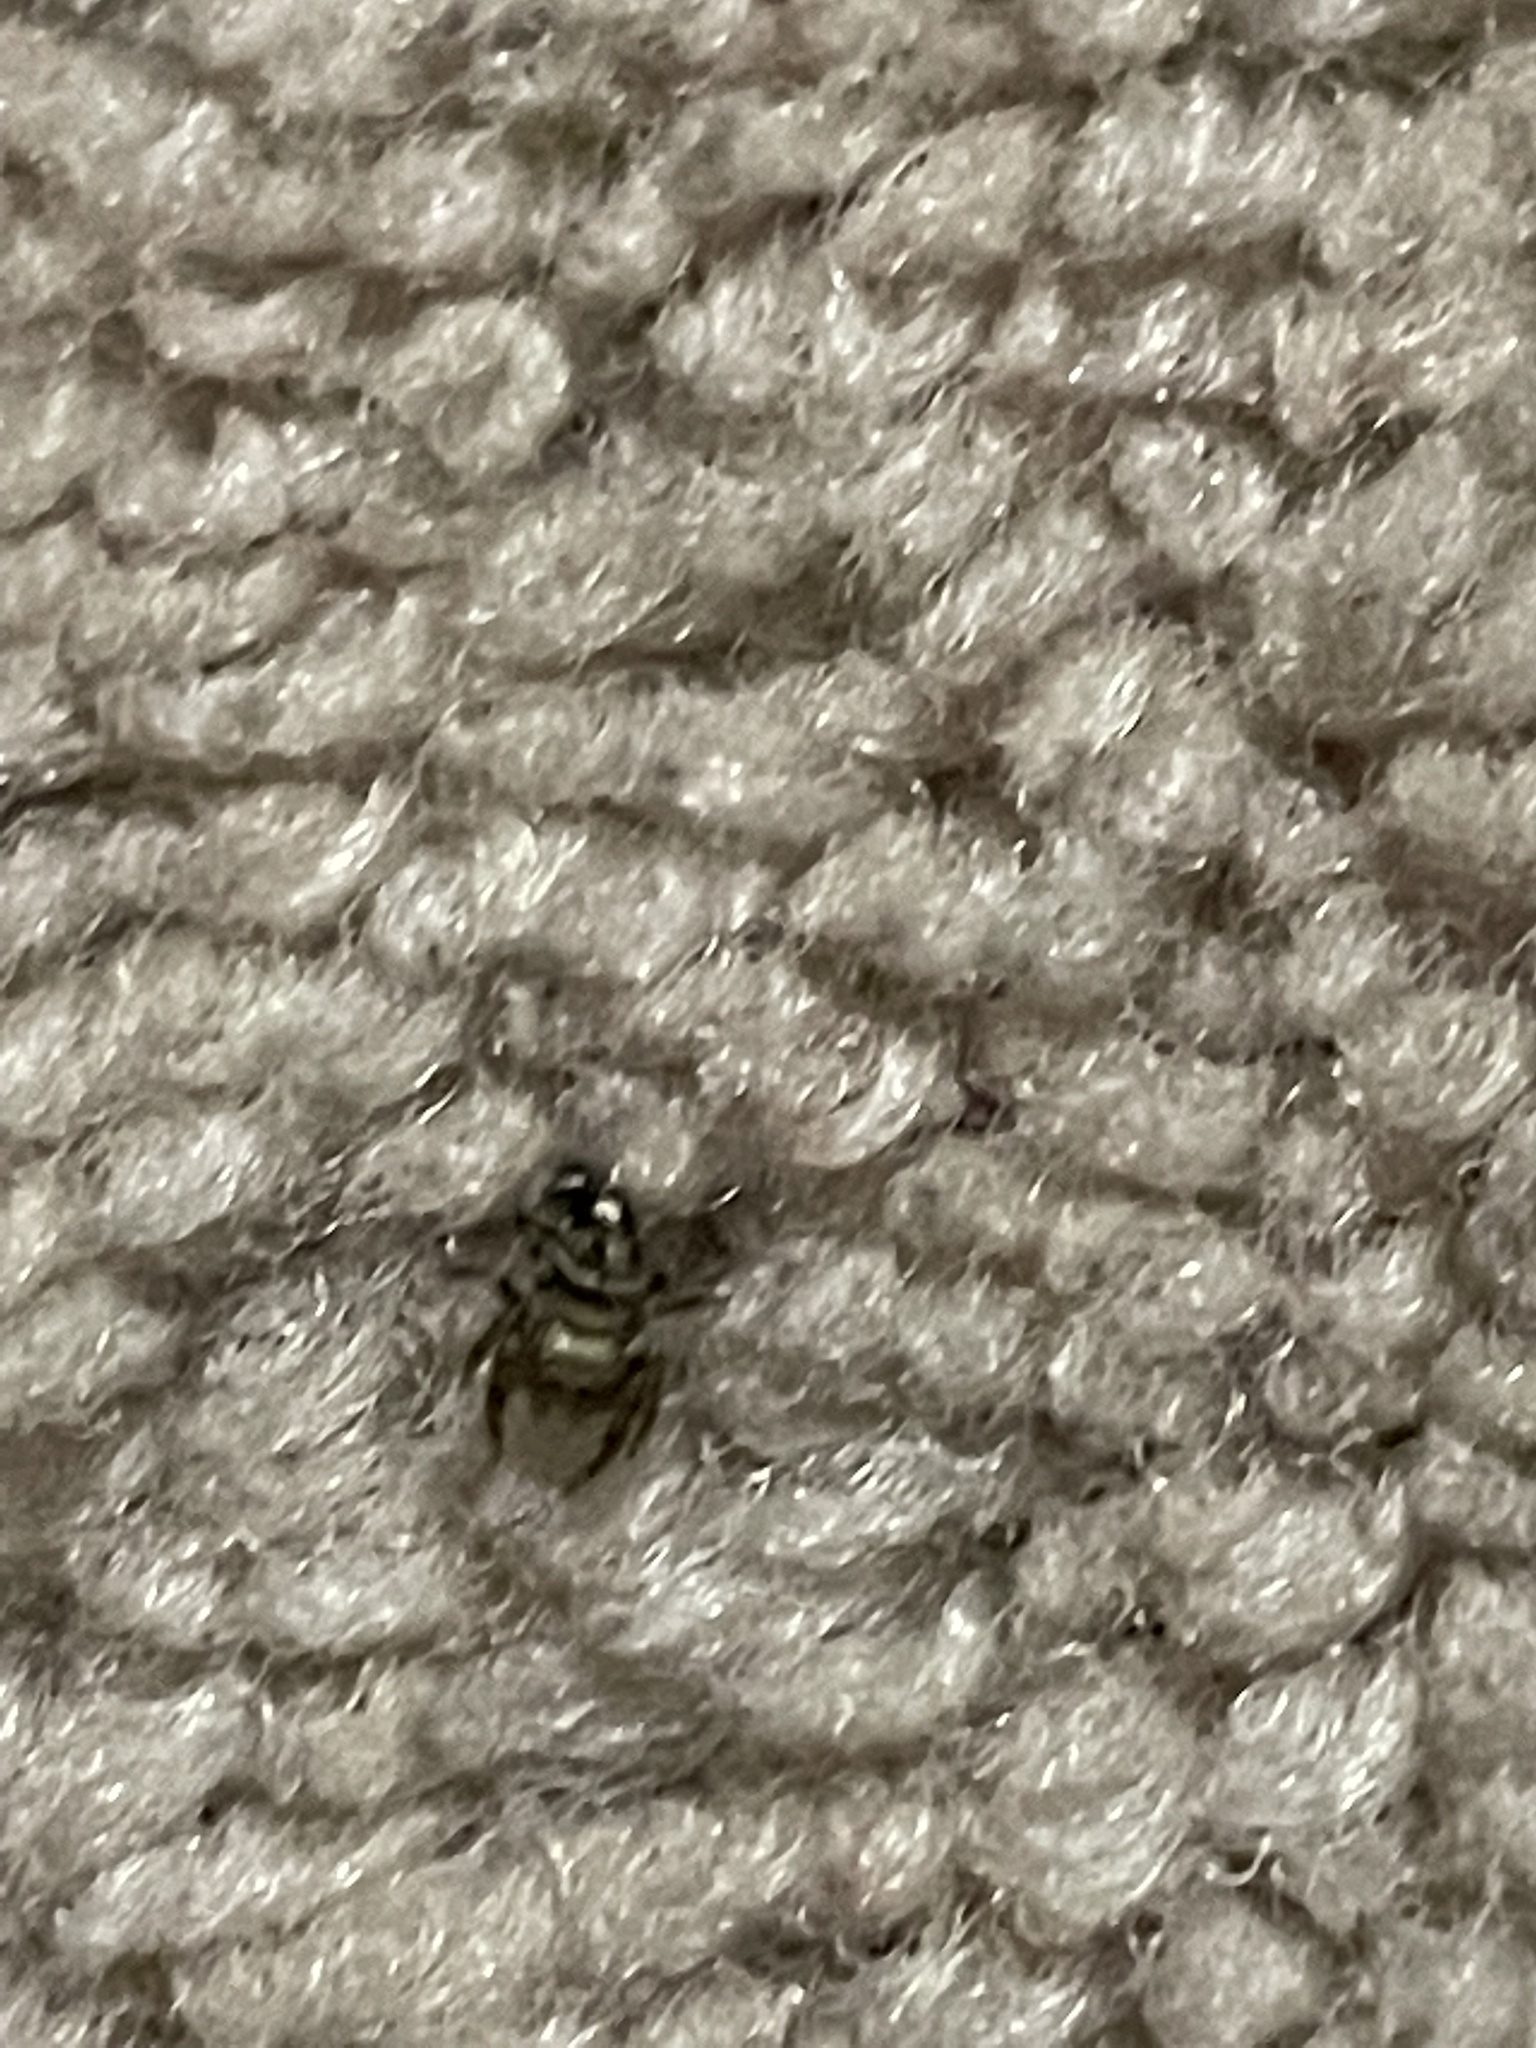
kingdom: Animalia
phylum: Arthropoda
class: Arachnida
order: Araneae
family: Salticidae
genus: Phidippus
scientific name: Phidippus audax
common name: Bold jumper
